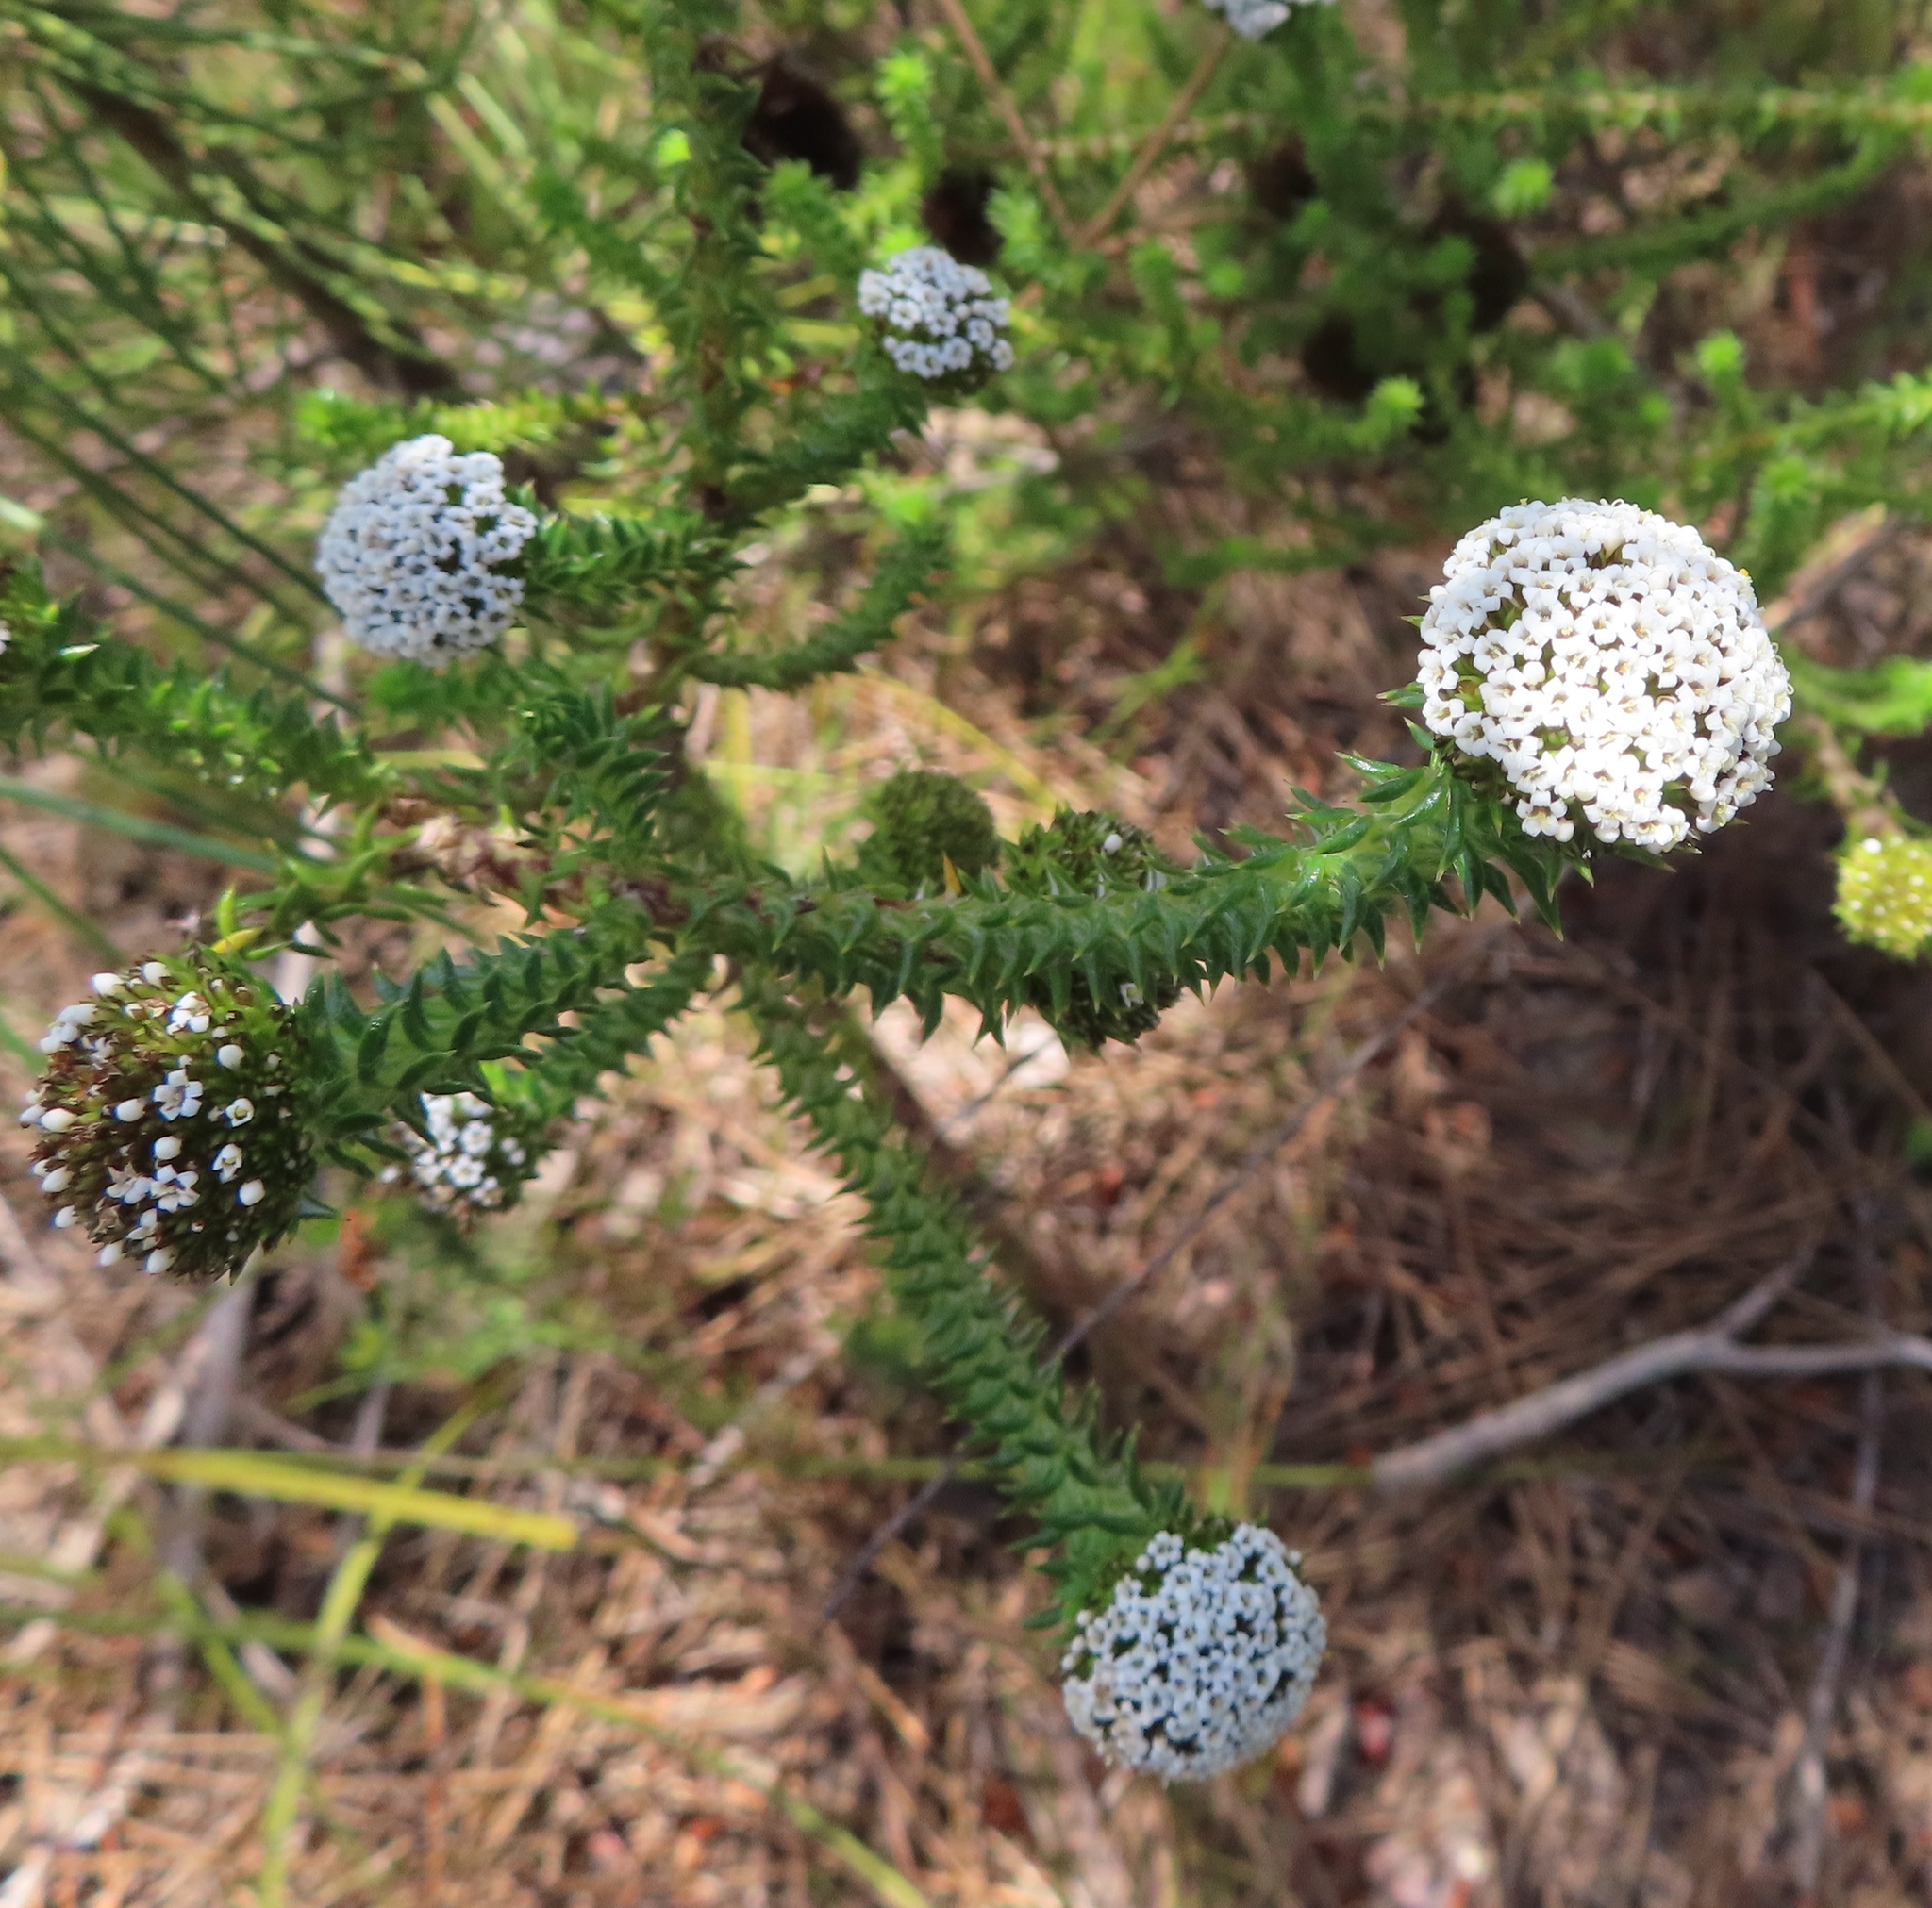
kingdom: Plantae
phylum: Tracheophyta
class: Magnoliopsida
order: Asterales
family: Asteraceae
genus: Stoebe
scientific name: Stoebe aethiopica
